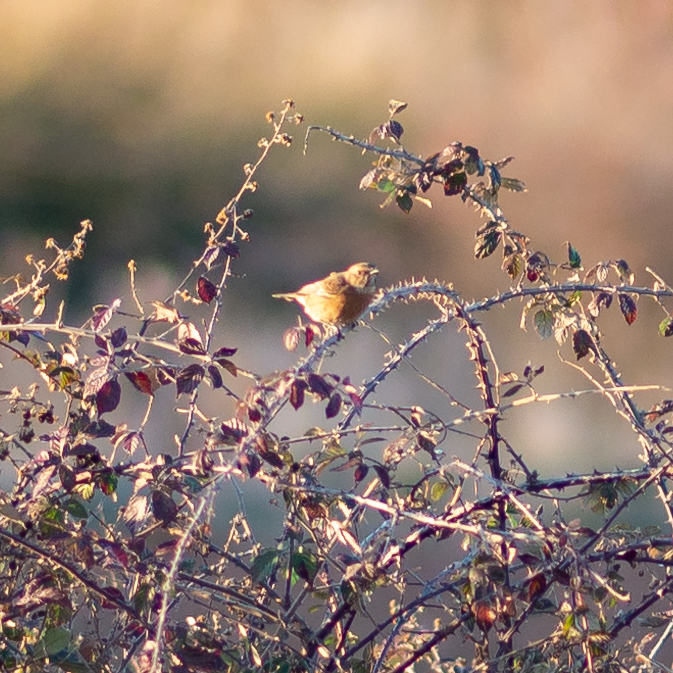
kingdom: Animalia
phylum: Chordata
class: Aves
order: Passeriformes
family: Muscicapidae
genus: Saxicola
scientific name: Saxicola rubicola
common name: European stonechat
